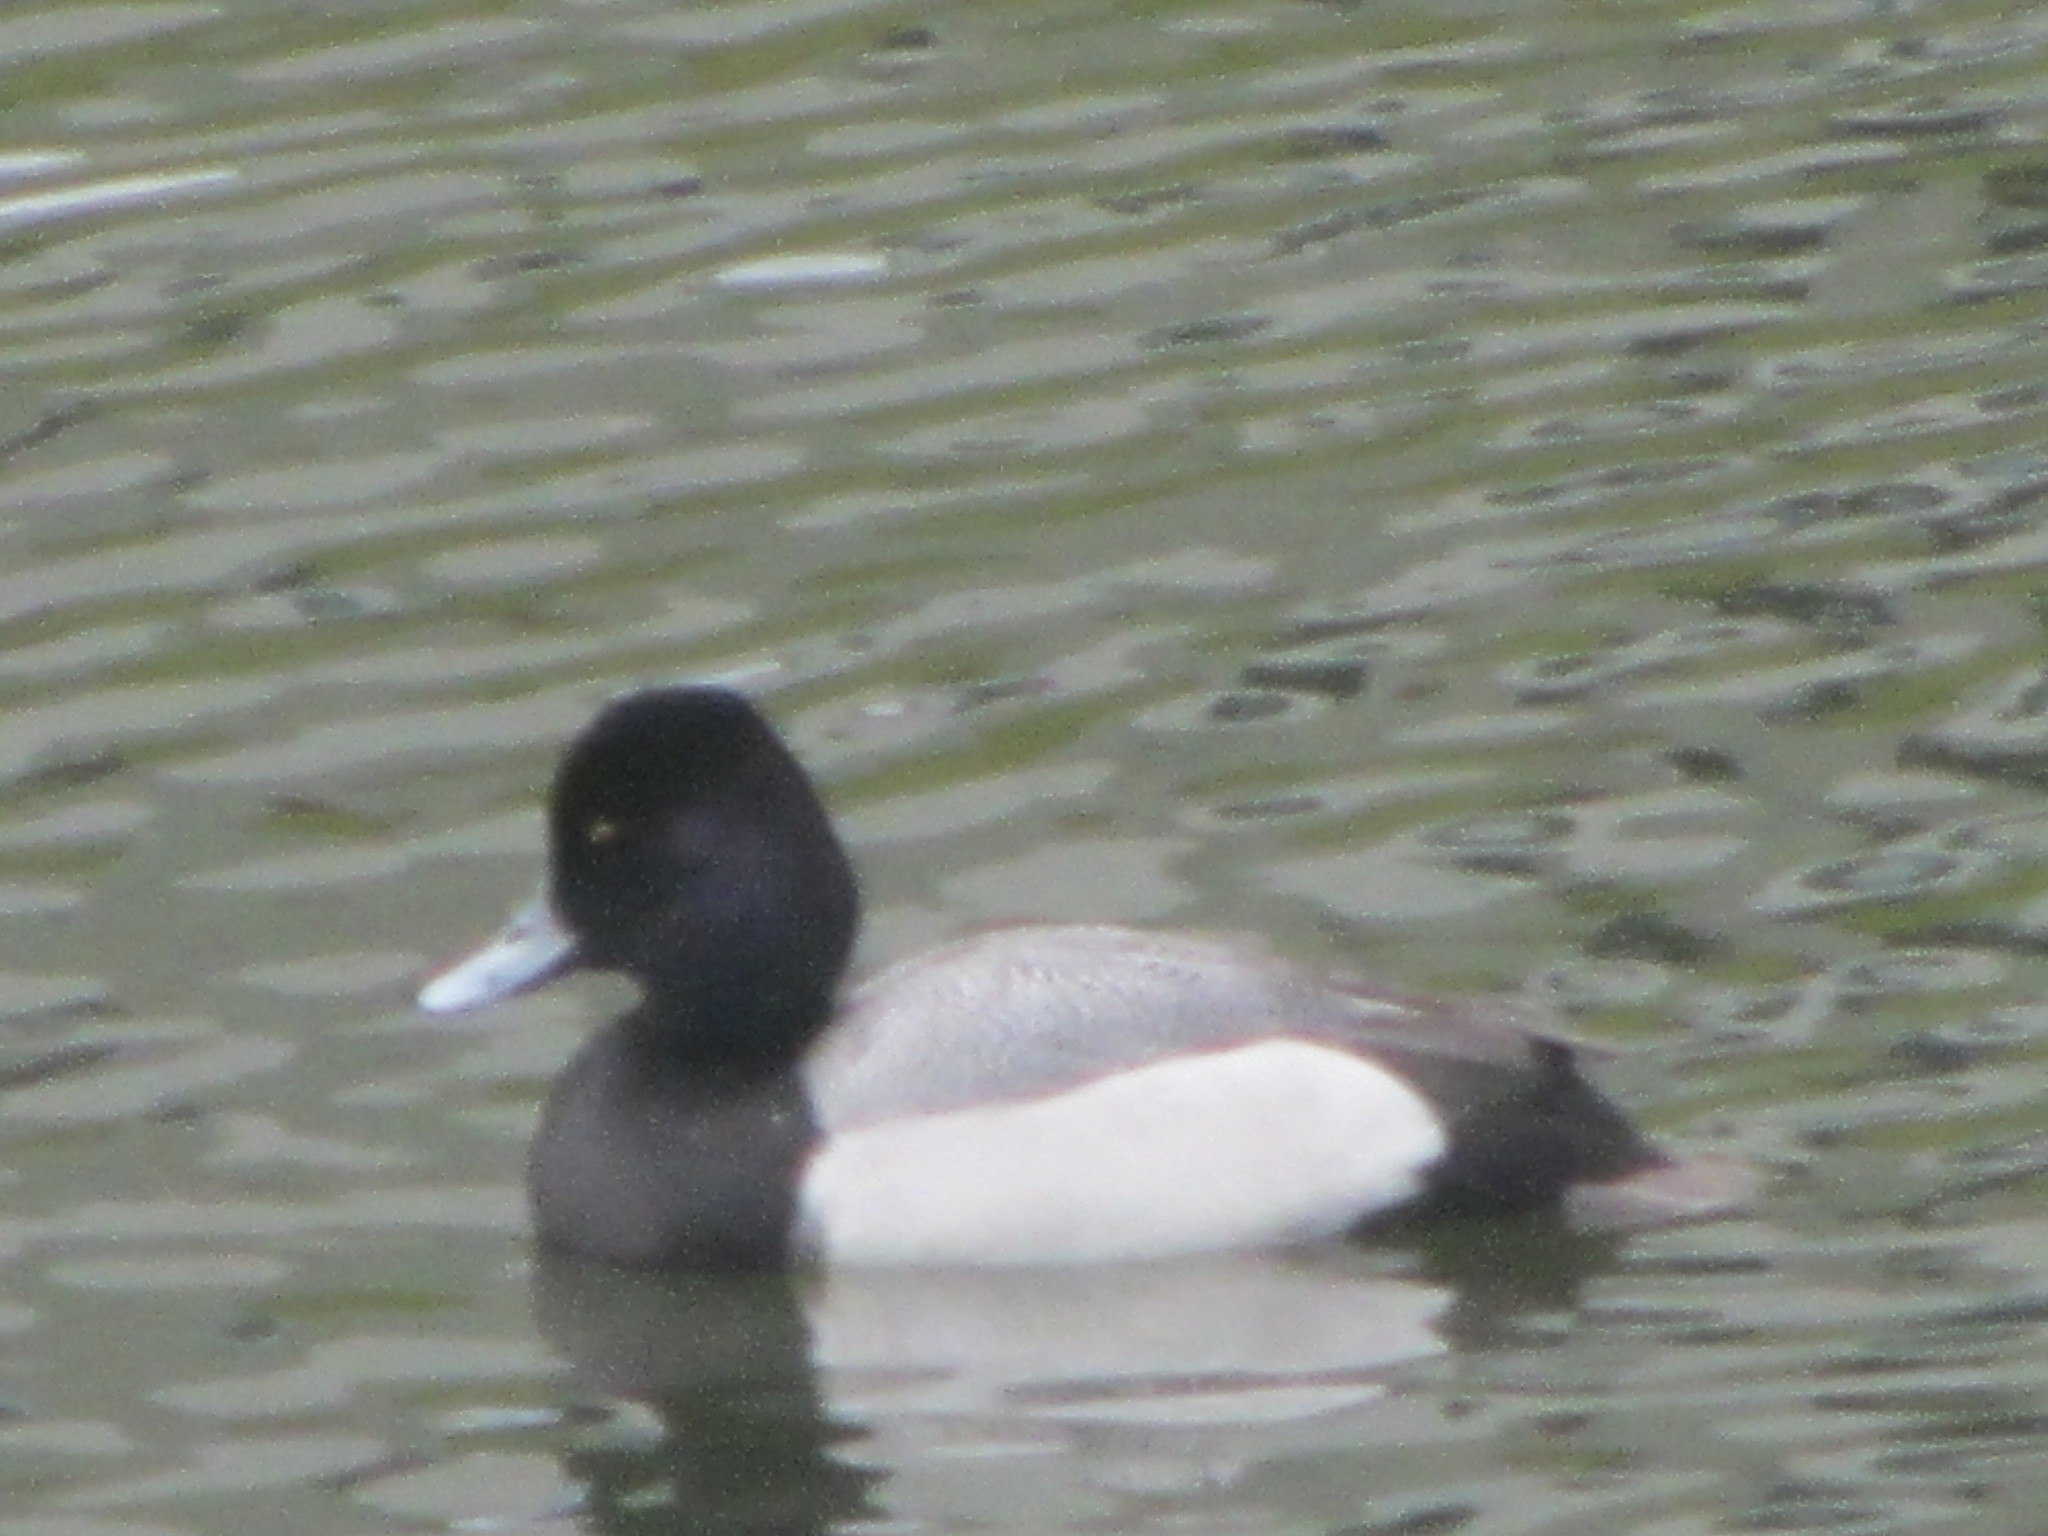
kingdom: Animalia
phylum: Chordata
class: Aves
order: Anseriformes
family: Anatidae
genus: Aythya
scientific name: Aythya affinis
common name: Lesser scaup
